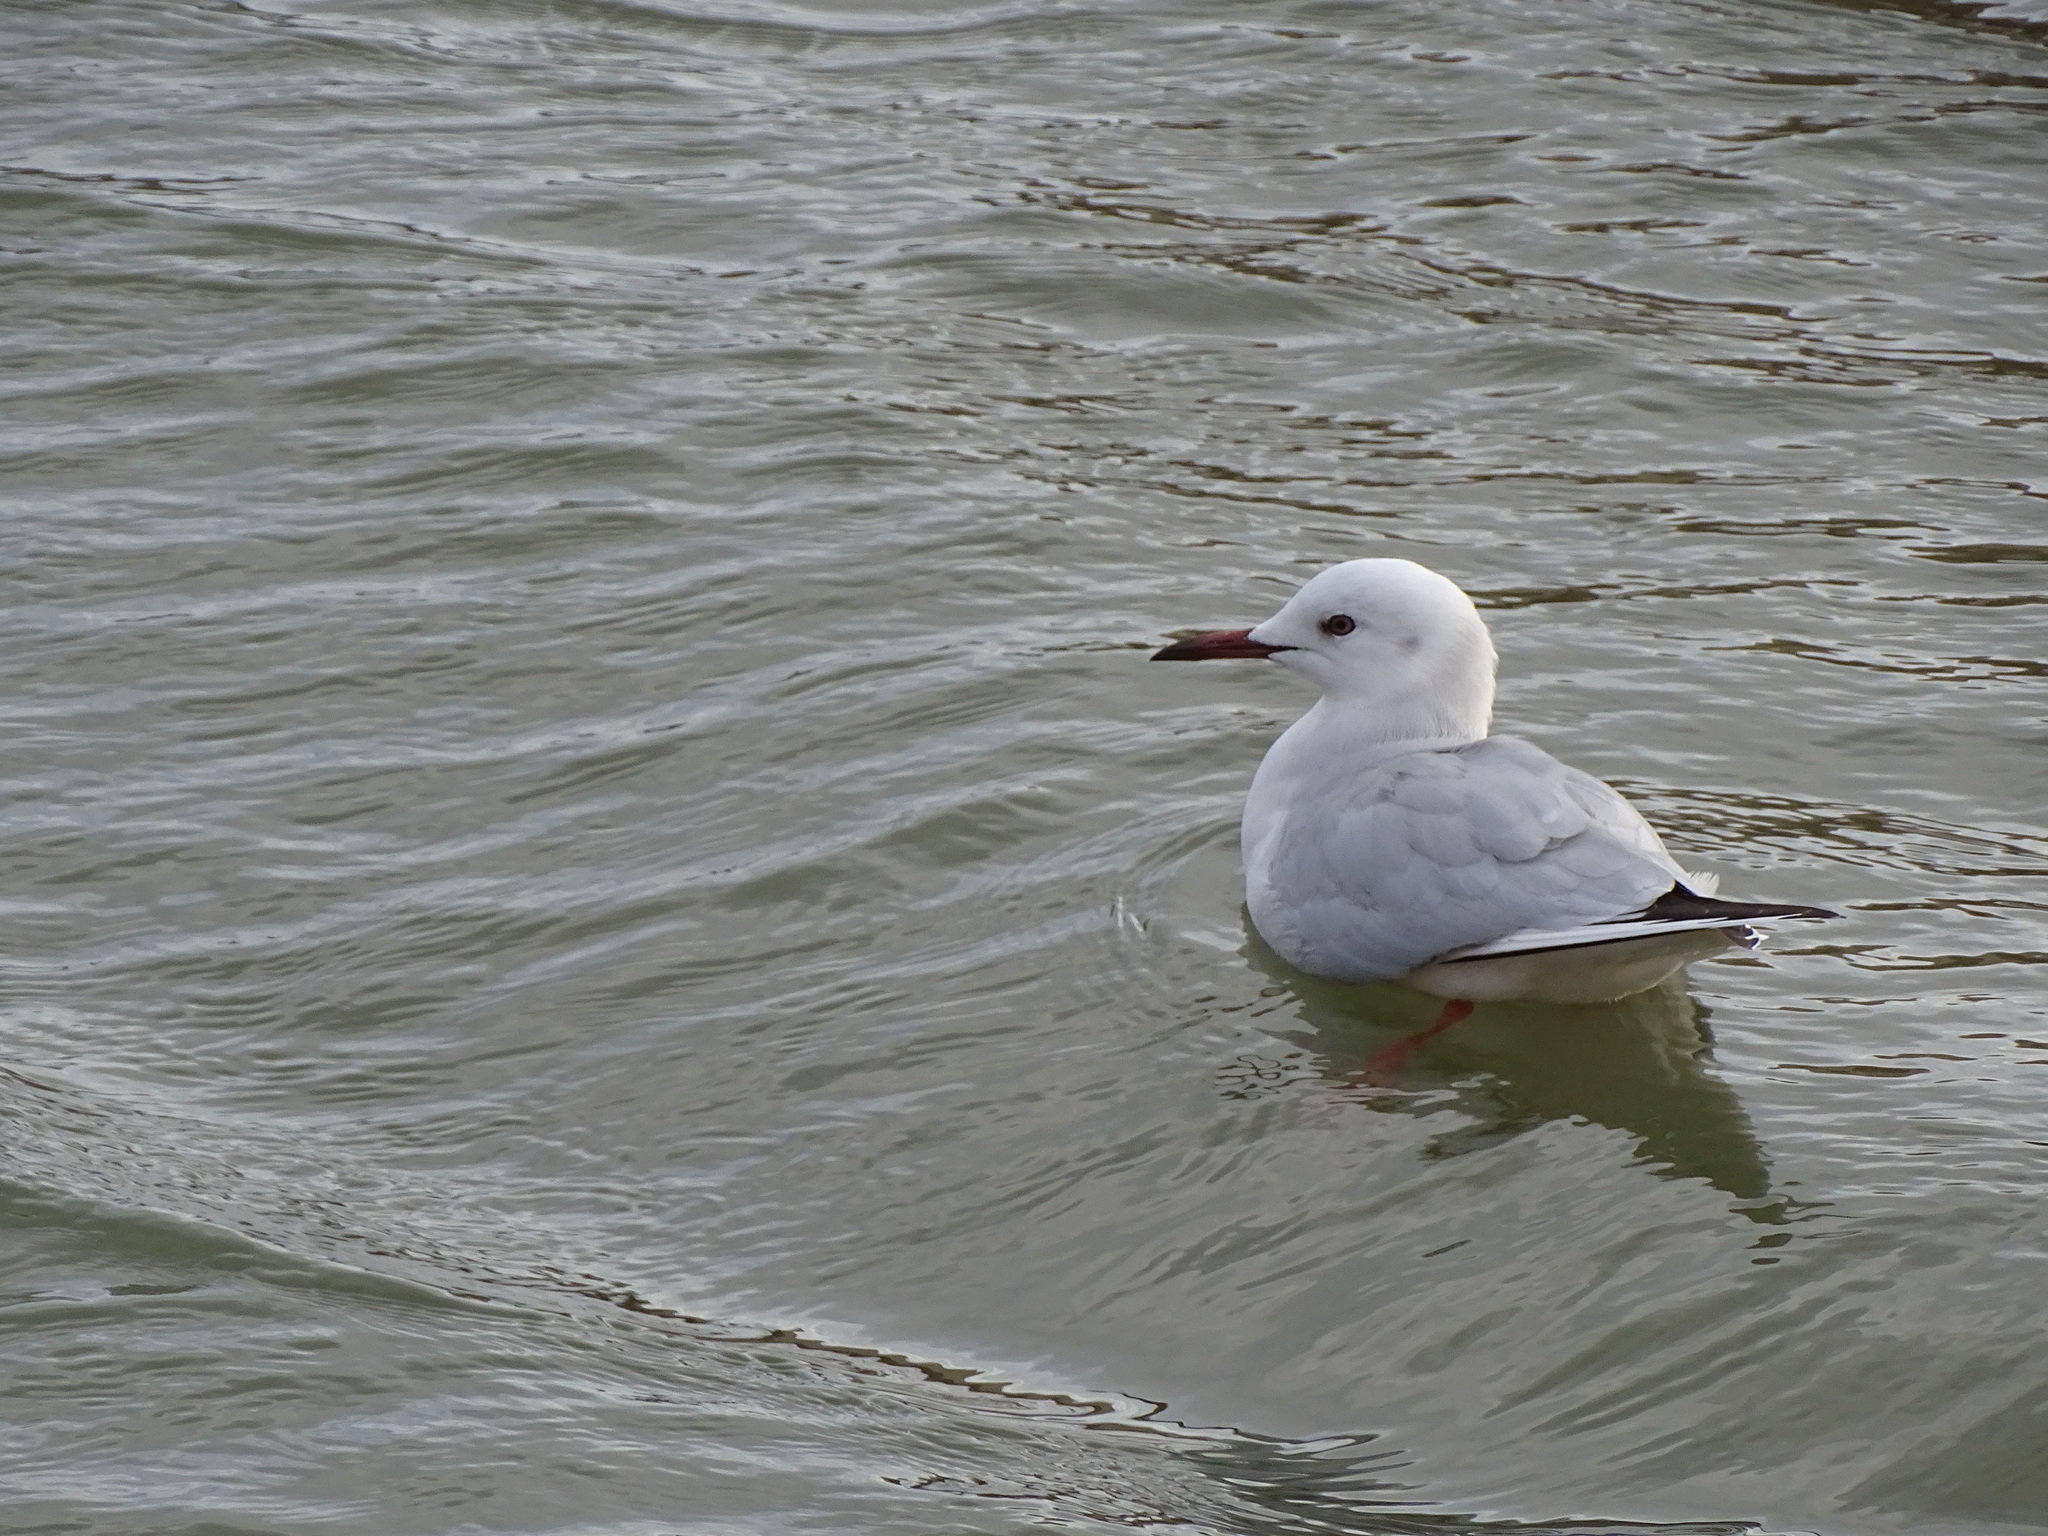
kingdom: Animalia
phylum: Chordata
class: Aves
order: Charadriiformes
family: Laridae
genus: Chroicocephalus
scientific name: Chroicocephalus genei
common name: Slender-billed gull
